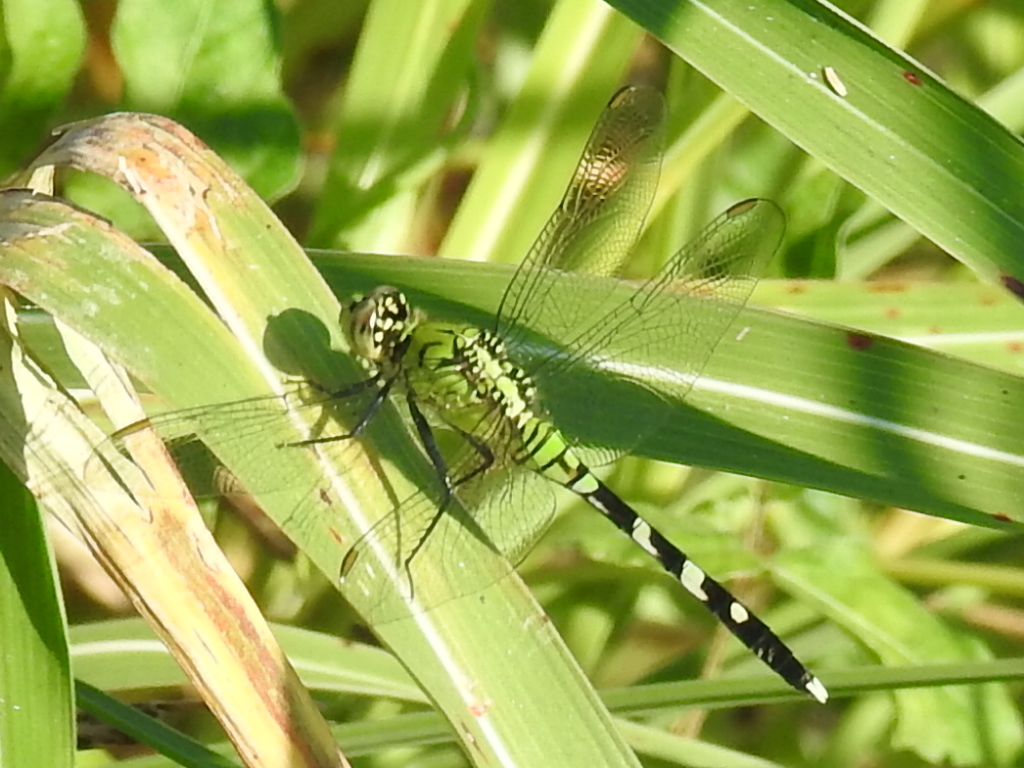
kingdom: Animalia
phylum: Arthropoda
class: Insecta
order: Odonata
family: Libellulidae
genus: Erythemis
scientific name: Erythemis simplicicollis
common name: Eastern pondhawk
